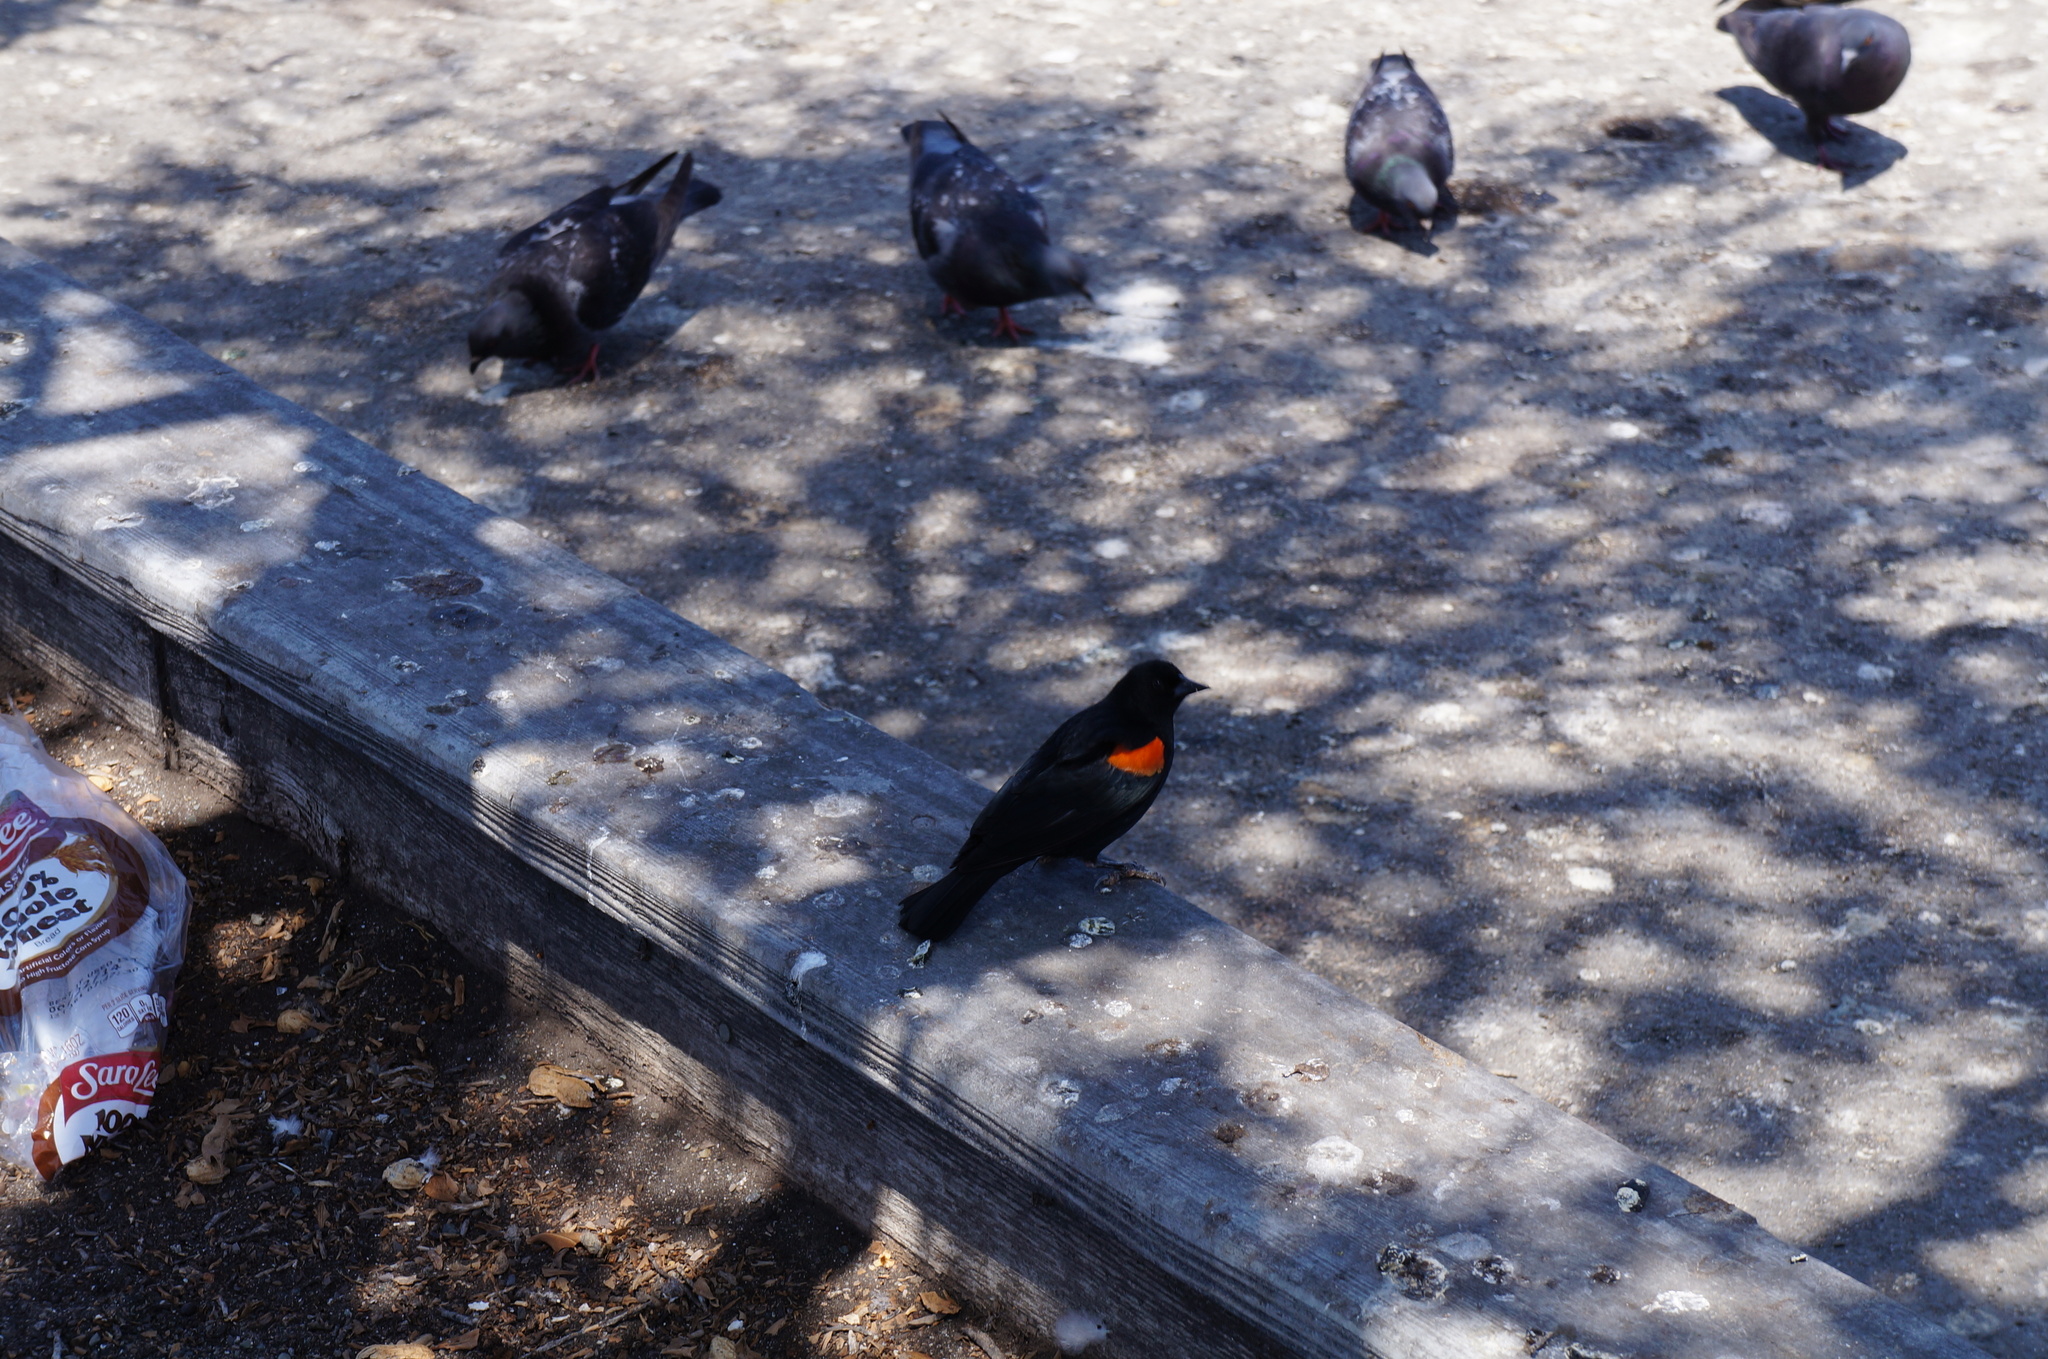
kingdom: Animalia
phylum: Chordata
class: Aves
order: Passeriformes
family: Icteridae
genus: Agelaius
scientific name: Agelaius phoeniceus
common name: Red-winged blackbird
